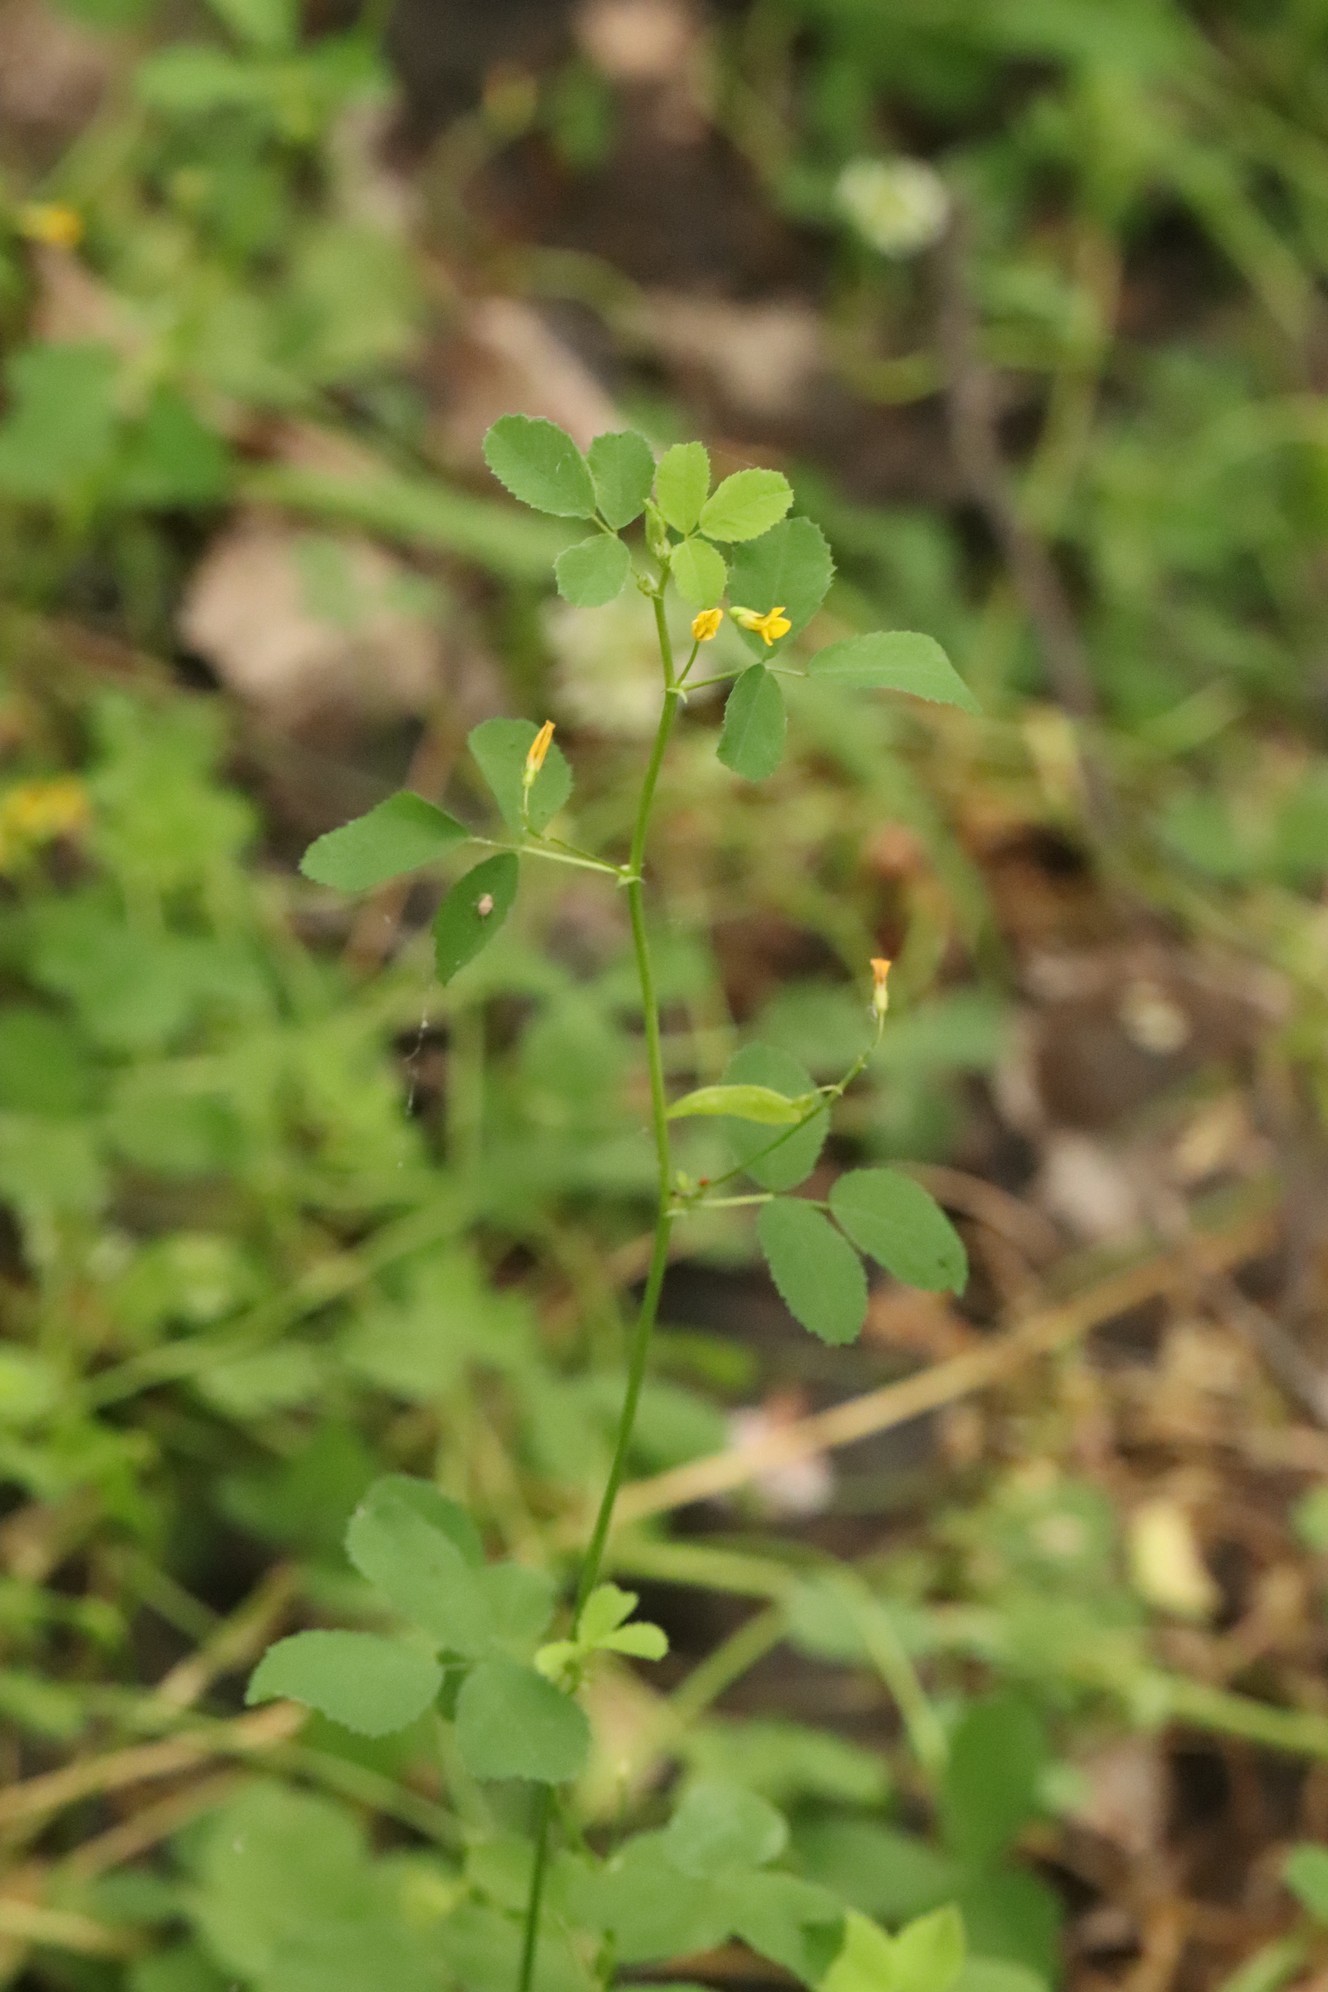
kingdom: Plantae
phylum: Tracheophyta
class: Magnoliopsida
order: Fabales
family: Fabaceae
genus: Medicago
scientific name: Medicago platycarpos
